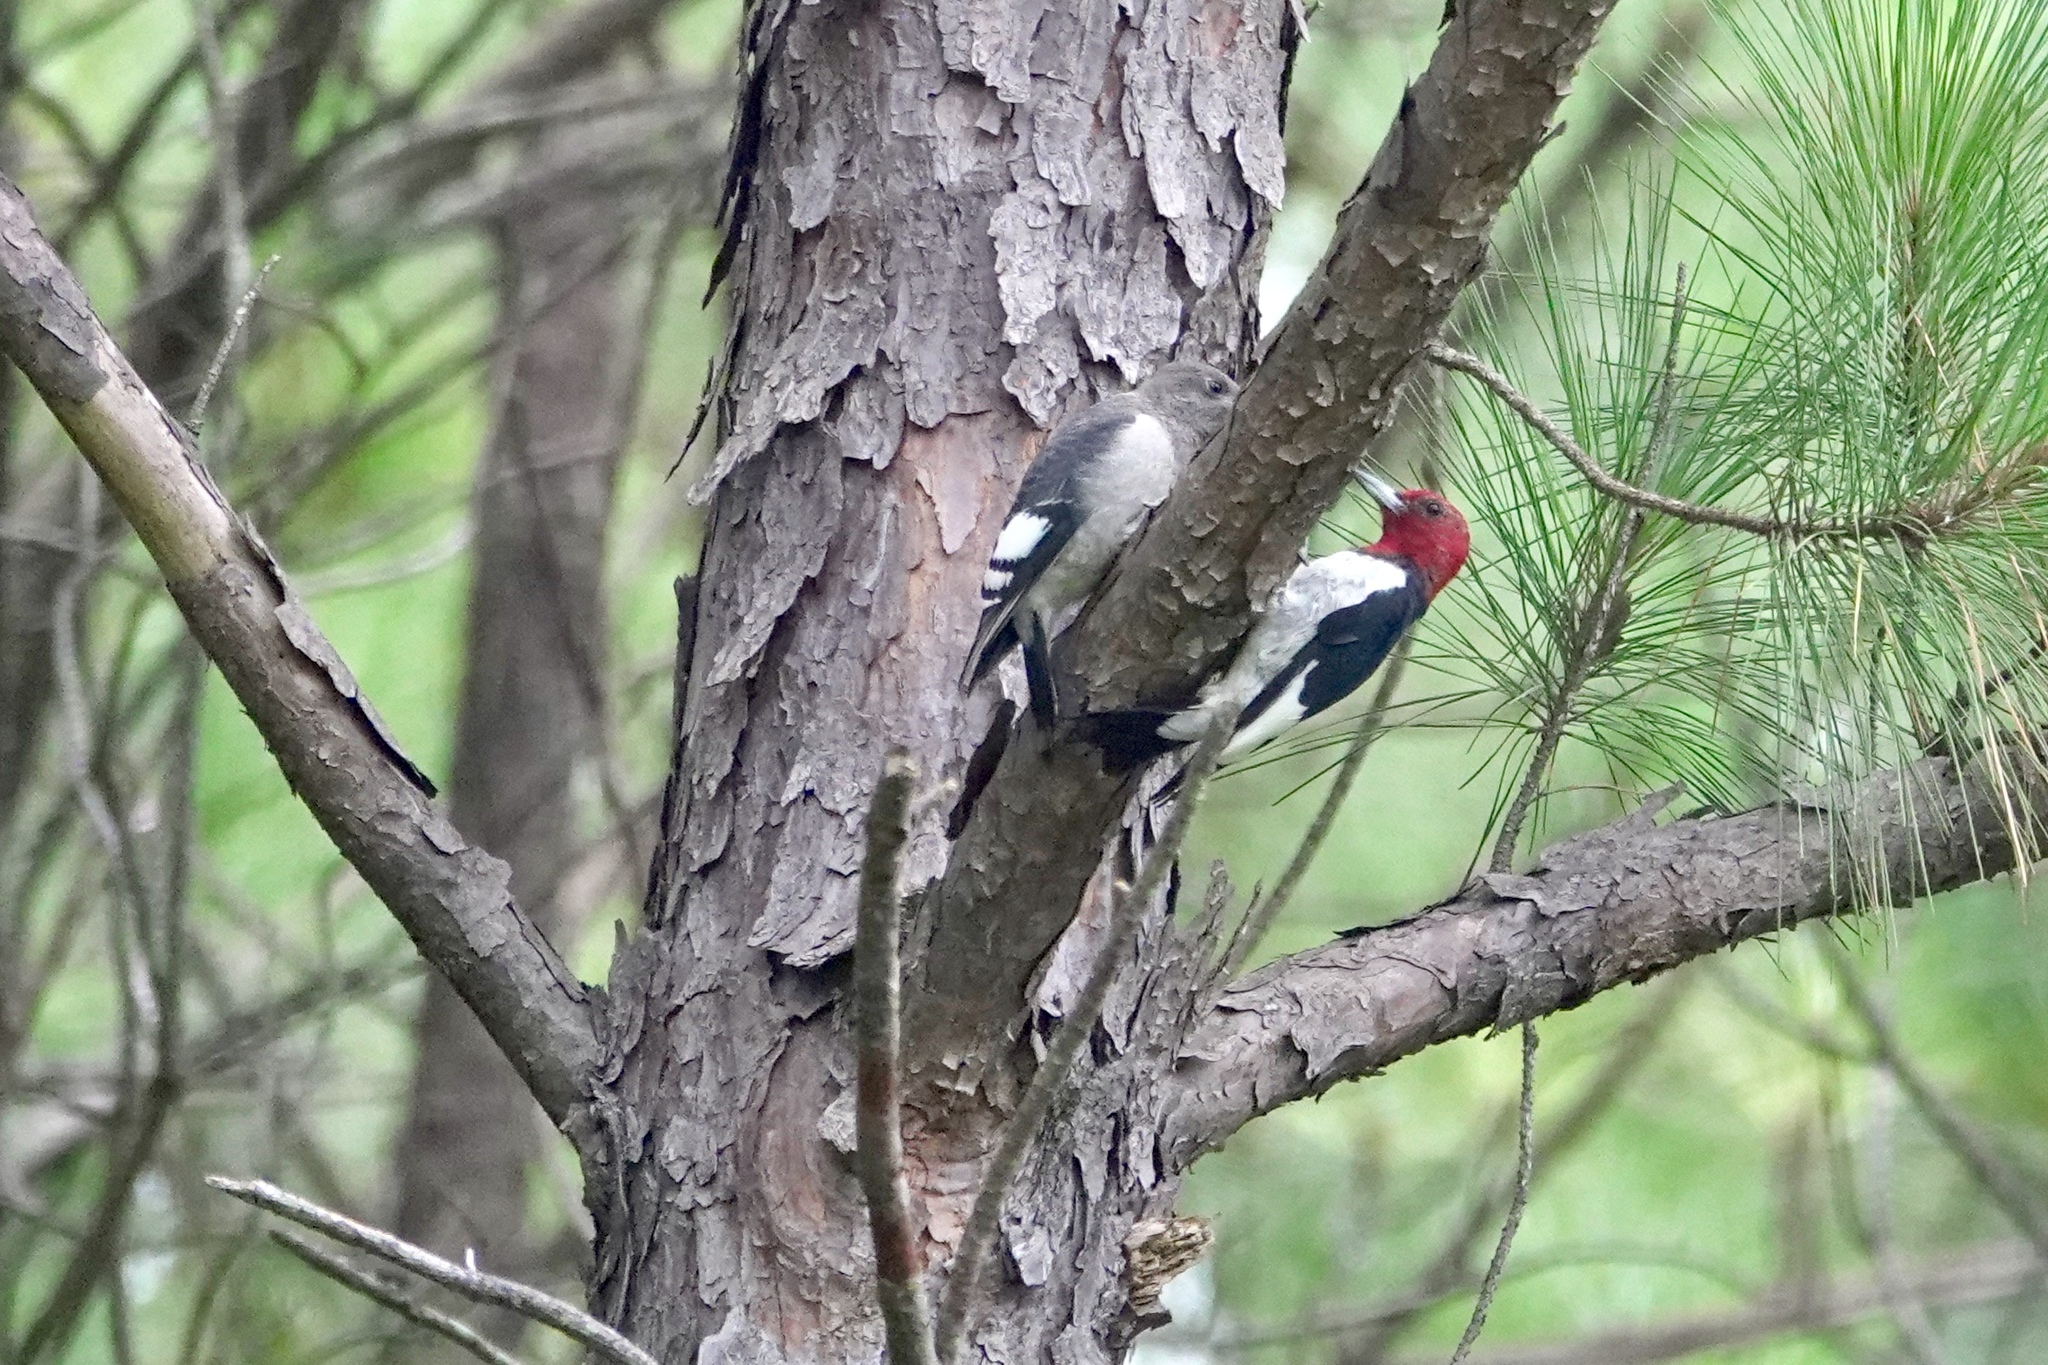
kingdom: Animalia
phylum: Chordata
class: Aves
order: Piciformes
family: Picidae
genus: Melanerpes
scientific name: Melanerpes erythrocephalus
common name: Red-headed woodpecker
